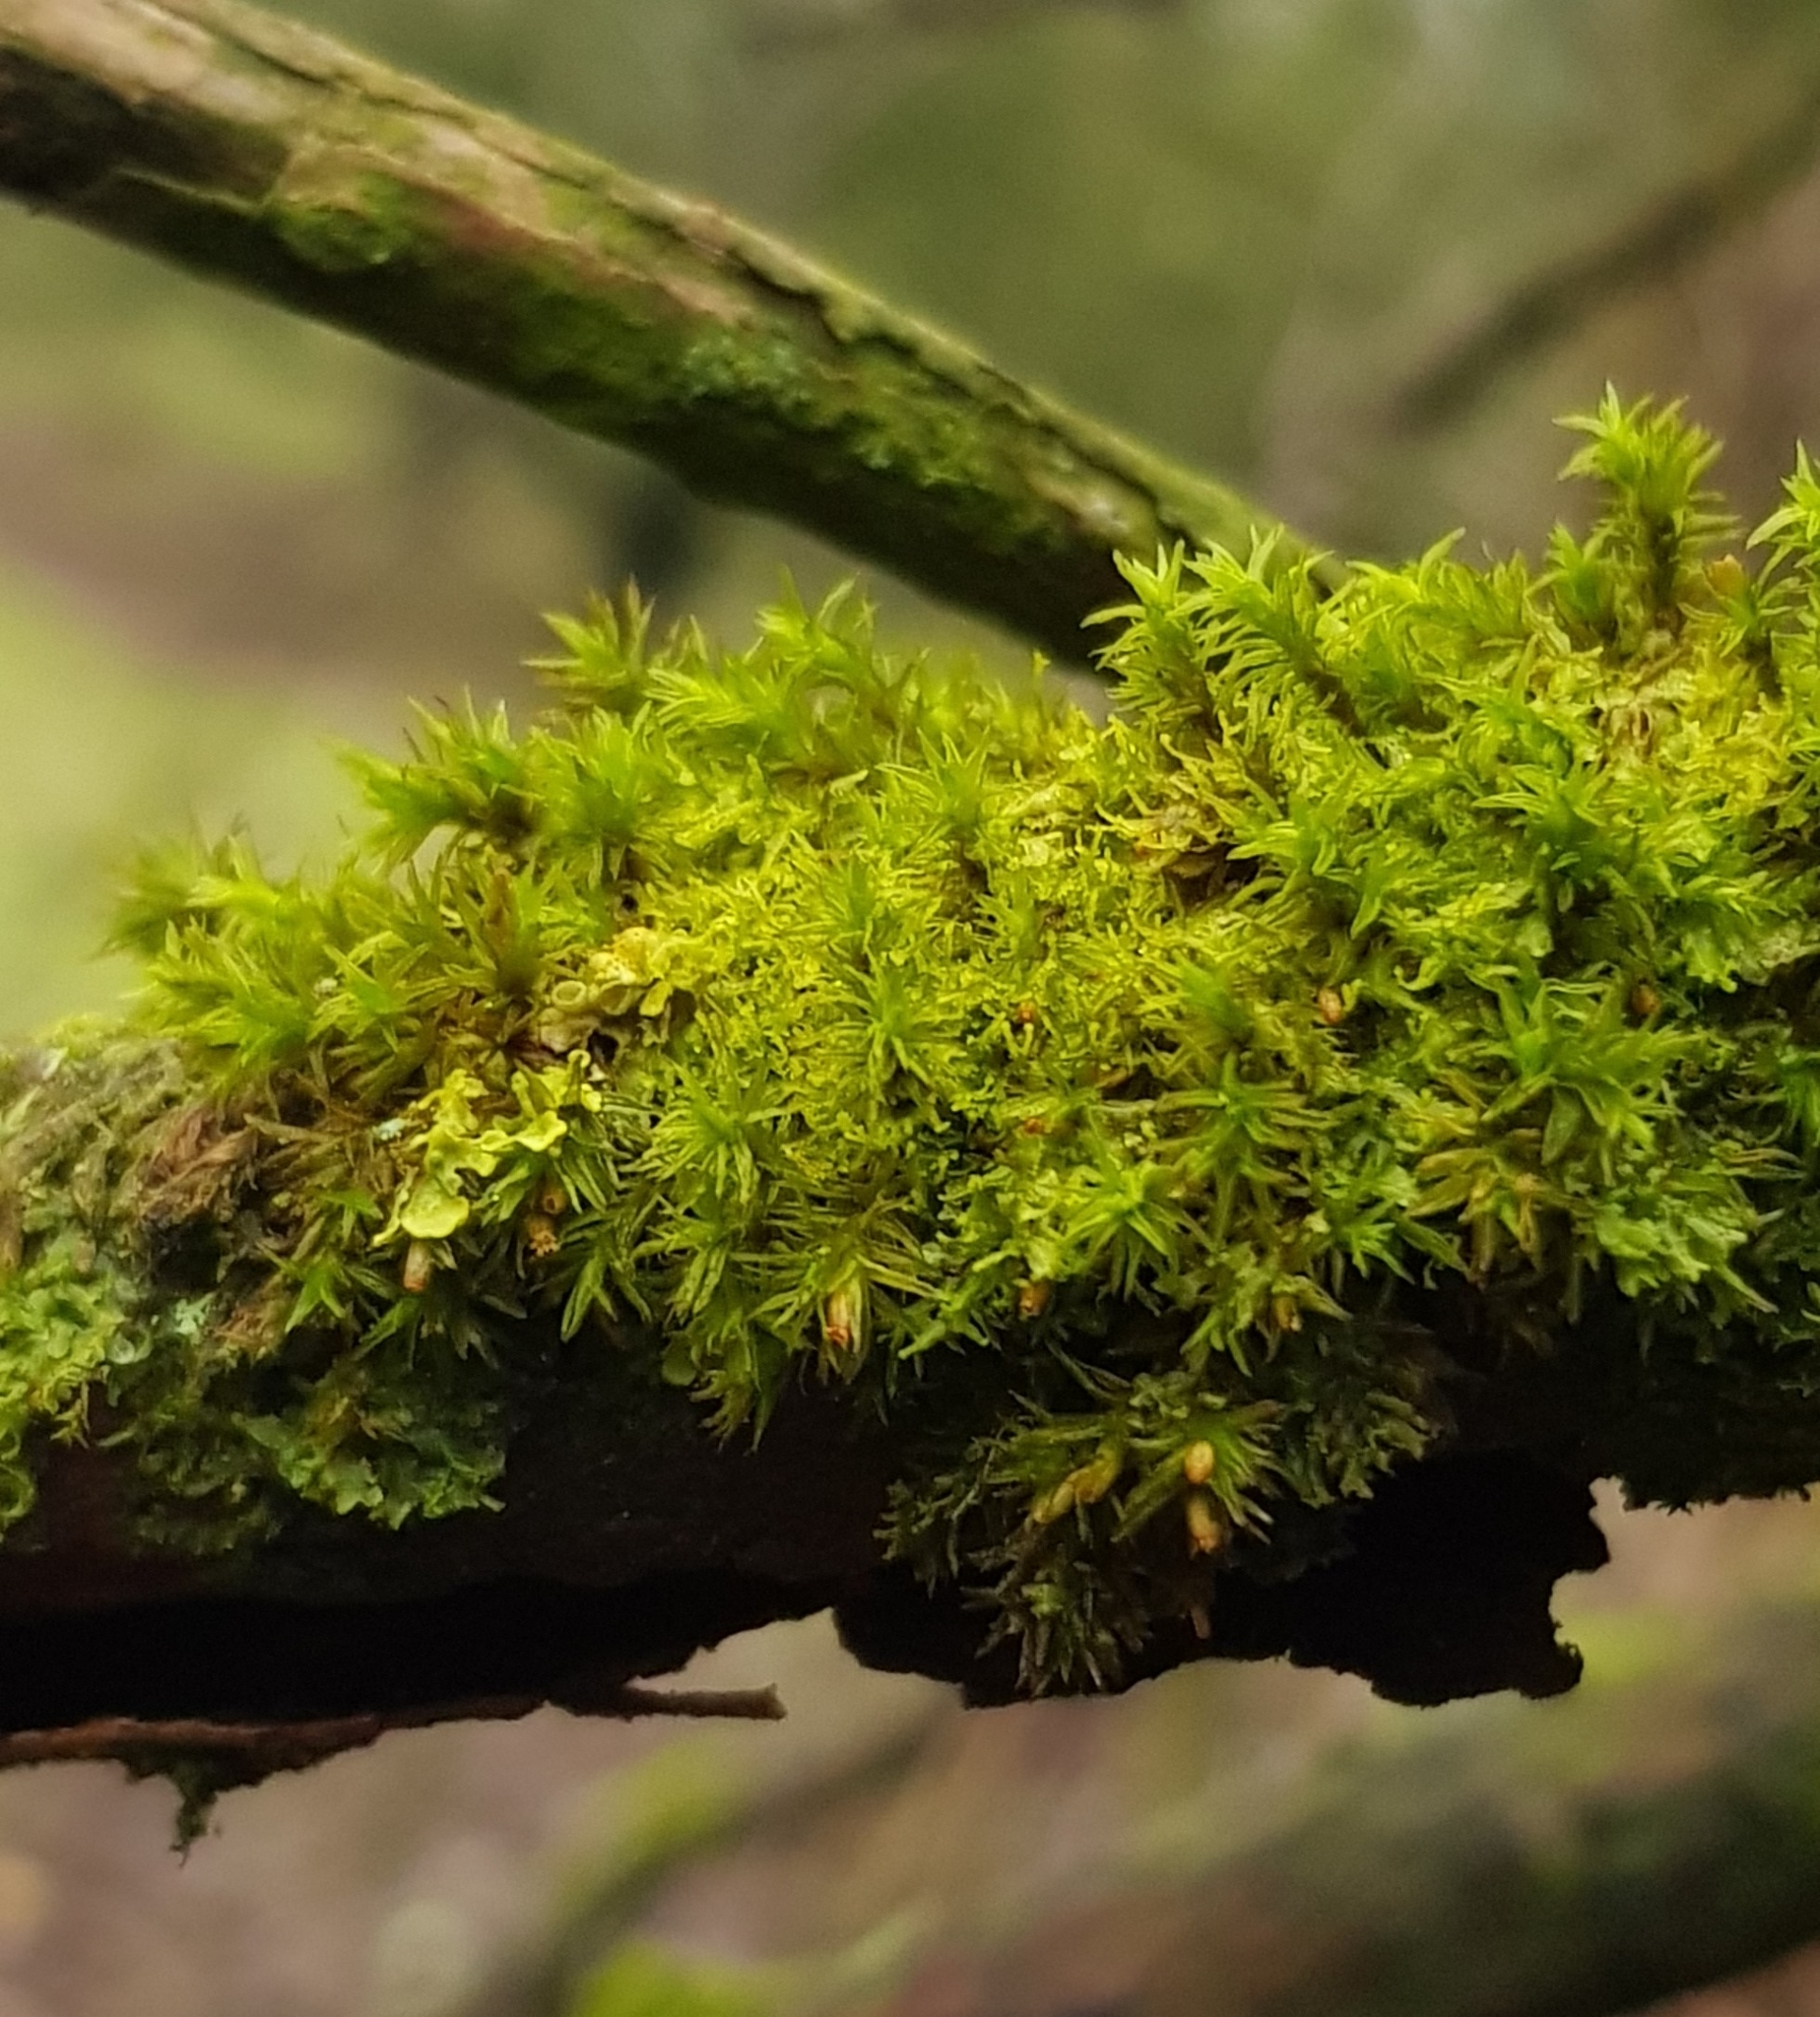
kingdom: Plantae
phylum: Bryophyta
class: Bryopsida
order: Orthotrichales
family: Orthotrichaceae
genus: Lewinskya
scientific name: Lewinskya affinis
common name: Wood bristle-moss
